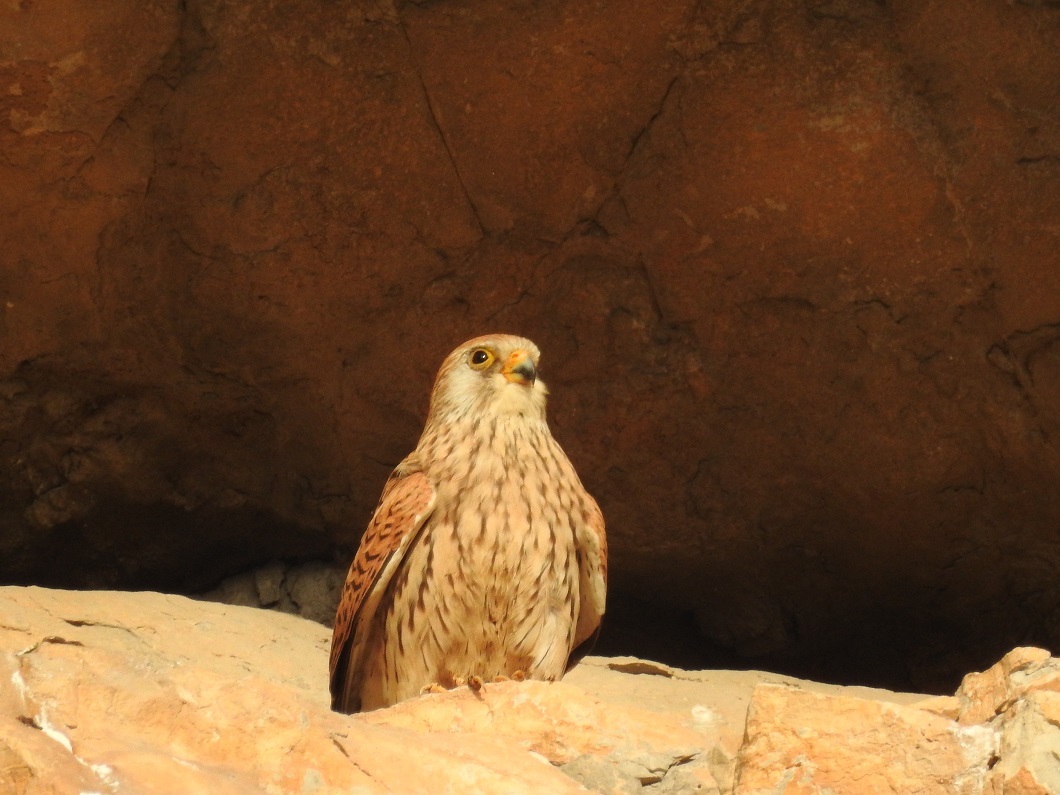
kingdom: Animalia
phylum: Chordata
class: Aves
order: Falconiformes
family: Falconidae
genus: Falco
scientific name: Falco naumanni
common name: Lesser kestrel
